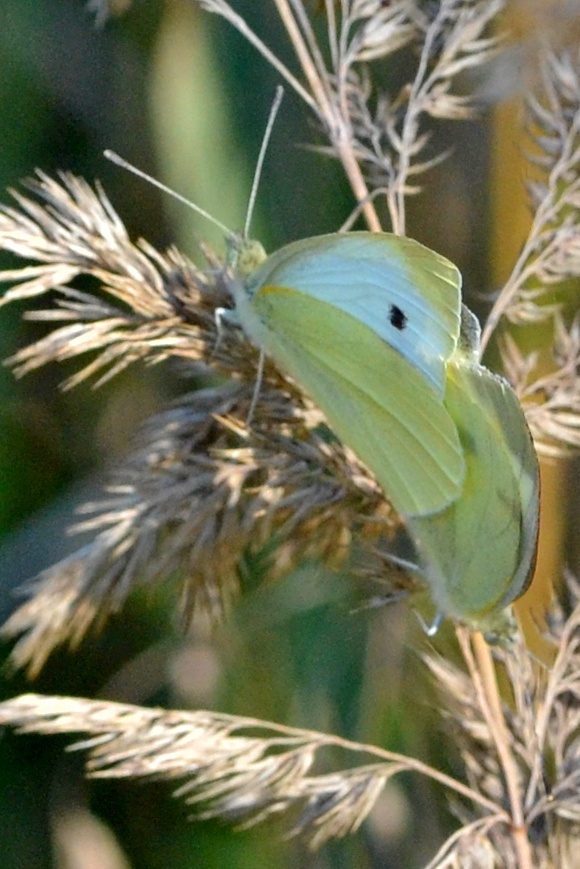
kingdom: Animalia
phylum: Arthropoda
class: Insecta
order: Lepidoptera
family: Pieridae
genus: Pieris
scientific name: Pieris brassicae
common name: Large white
